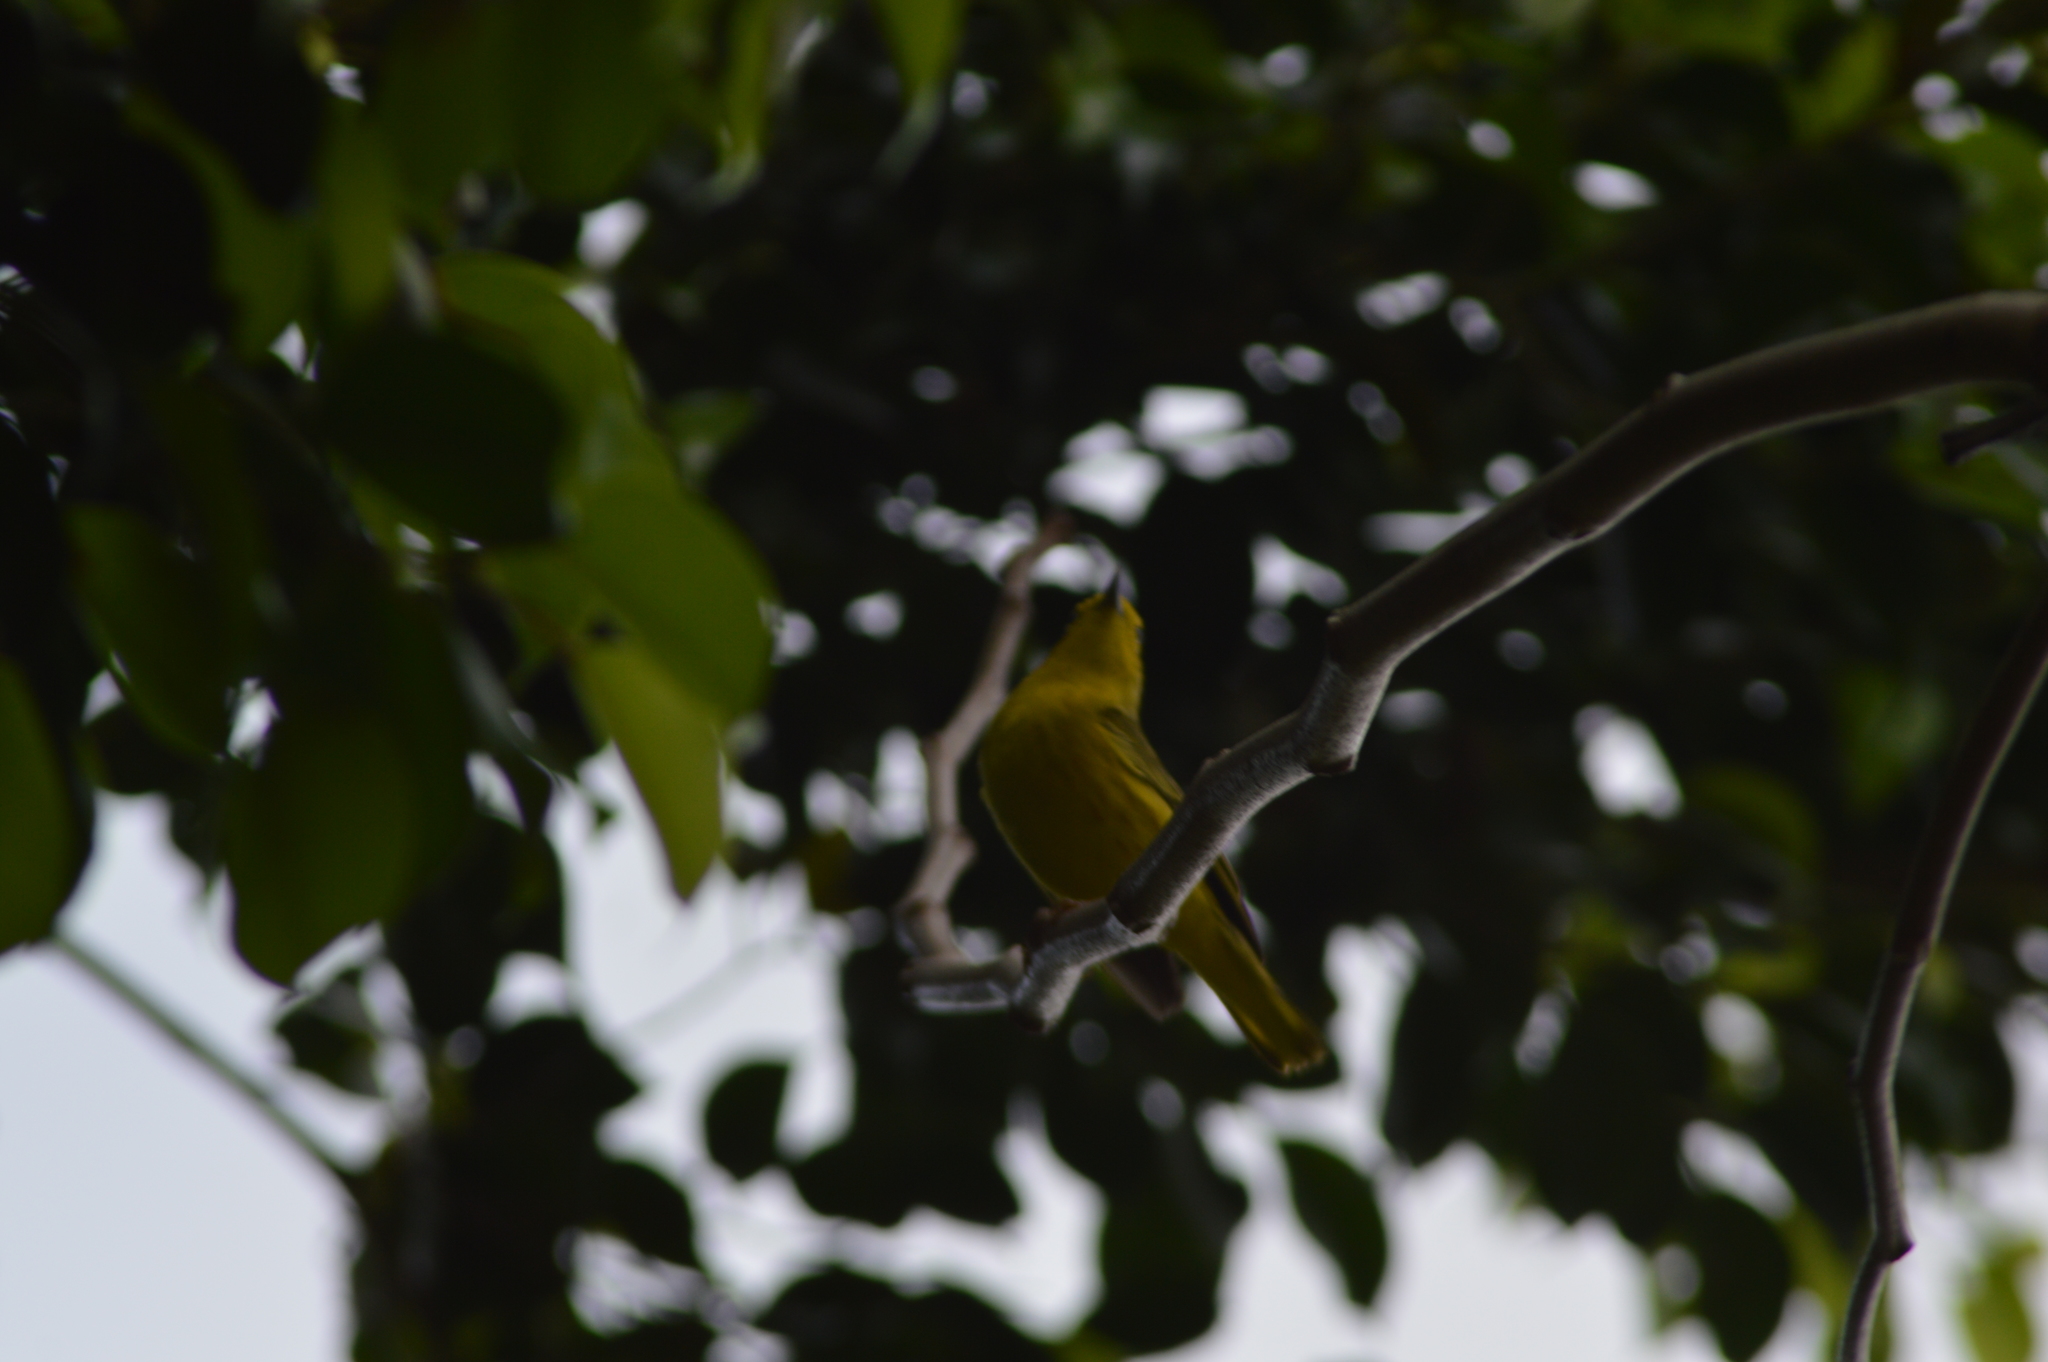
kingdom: Animalia
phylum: Chordata
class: Aves
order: Passeriformes
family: Parulidae
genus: Setophaga
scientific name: Setophaga petechia
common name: Yellow warbler
